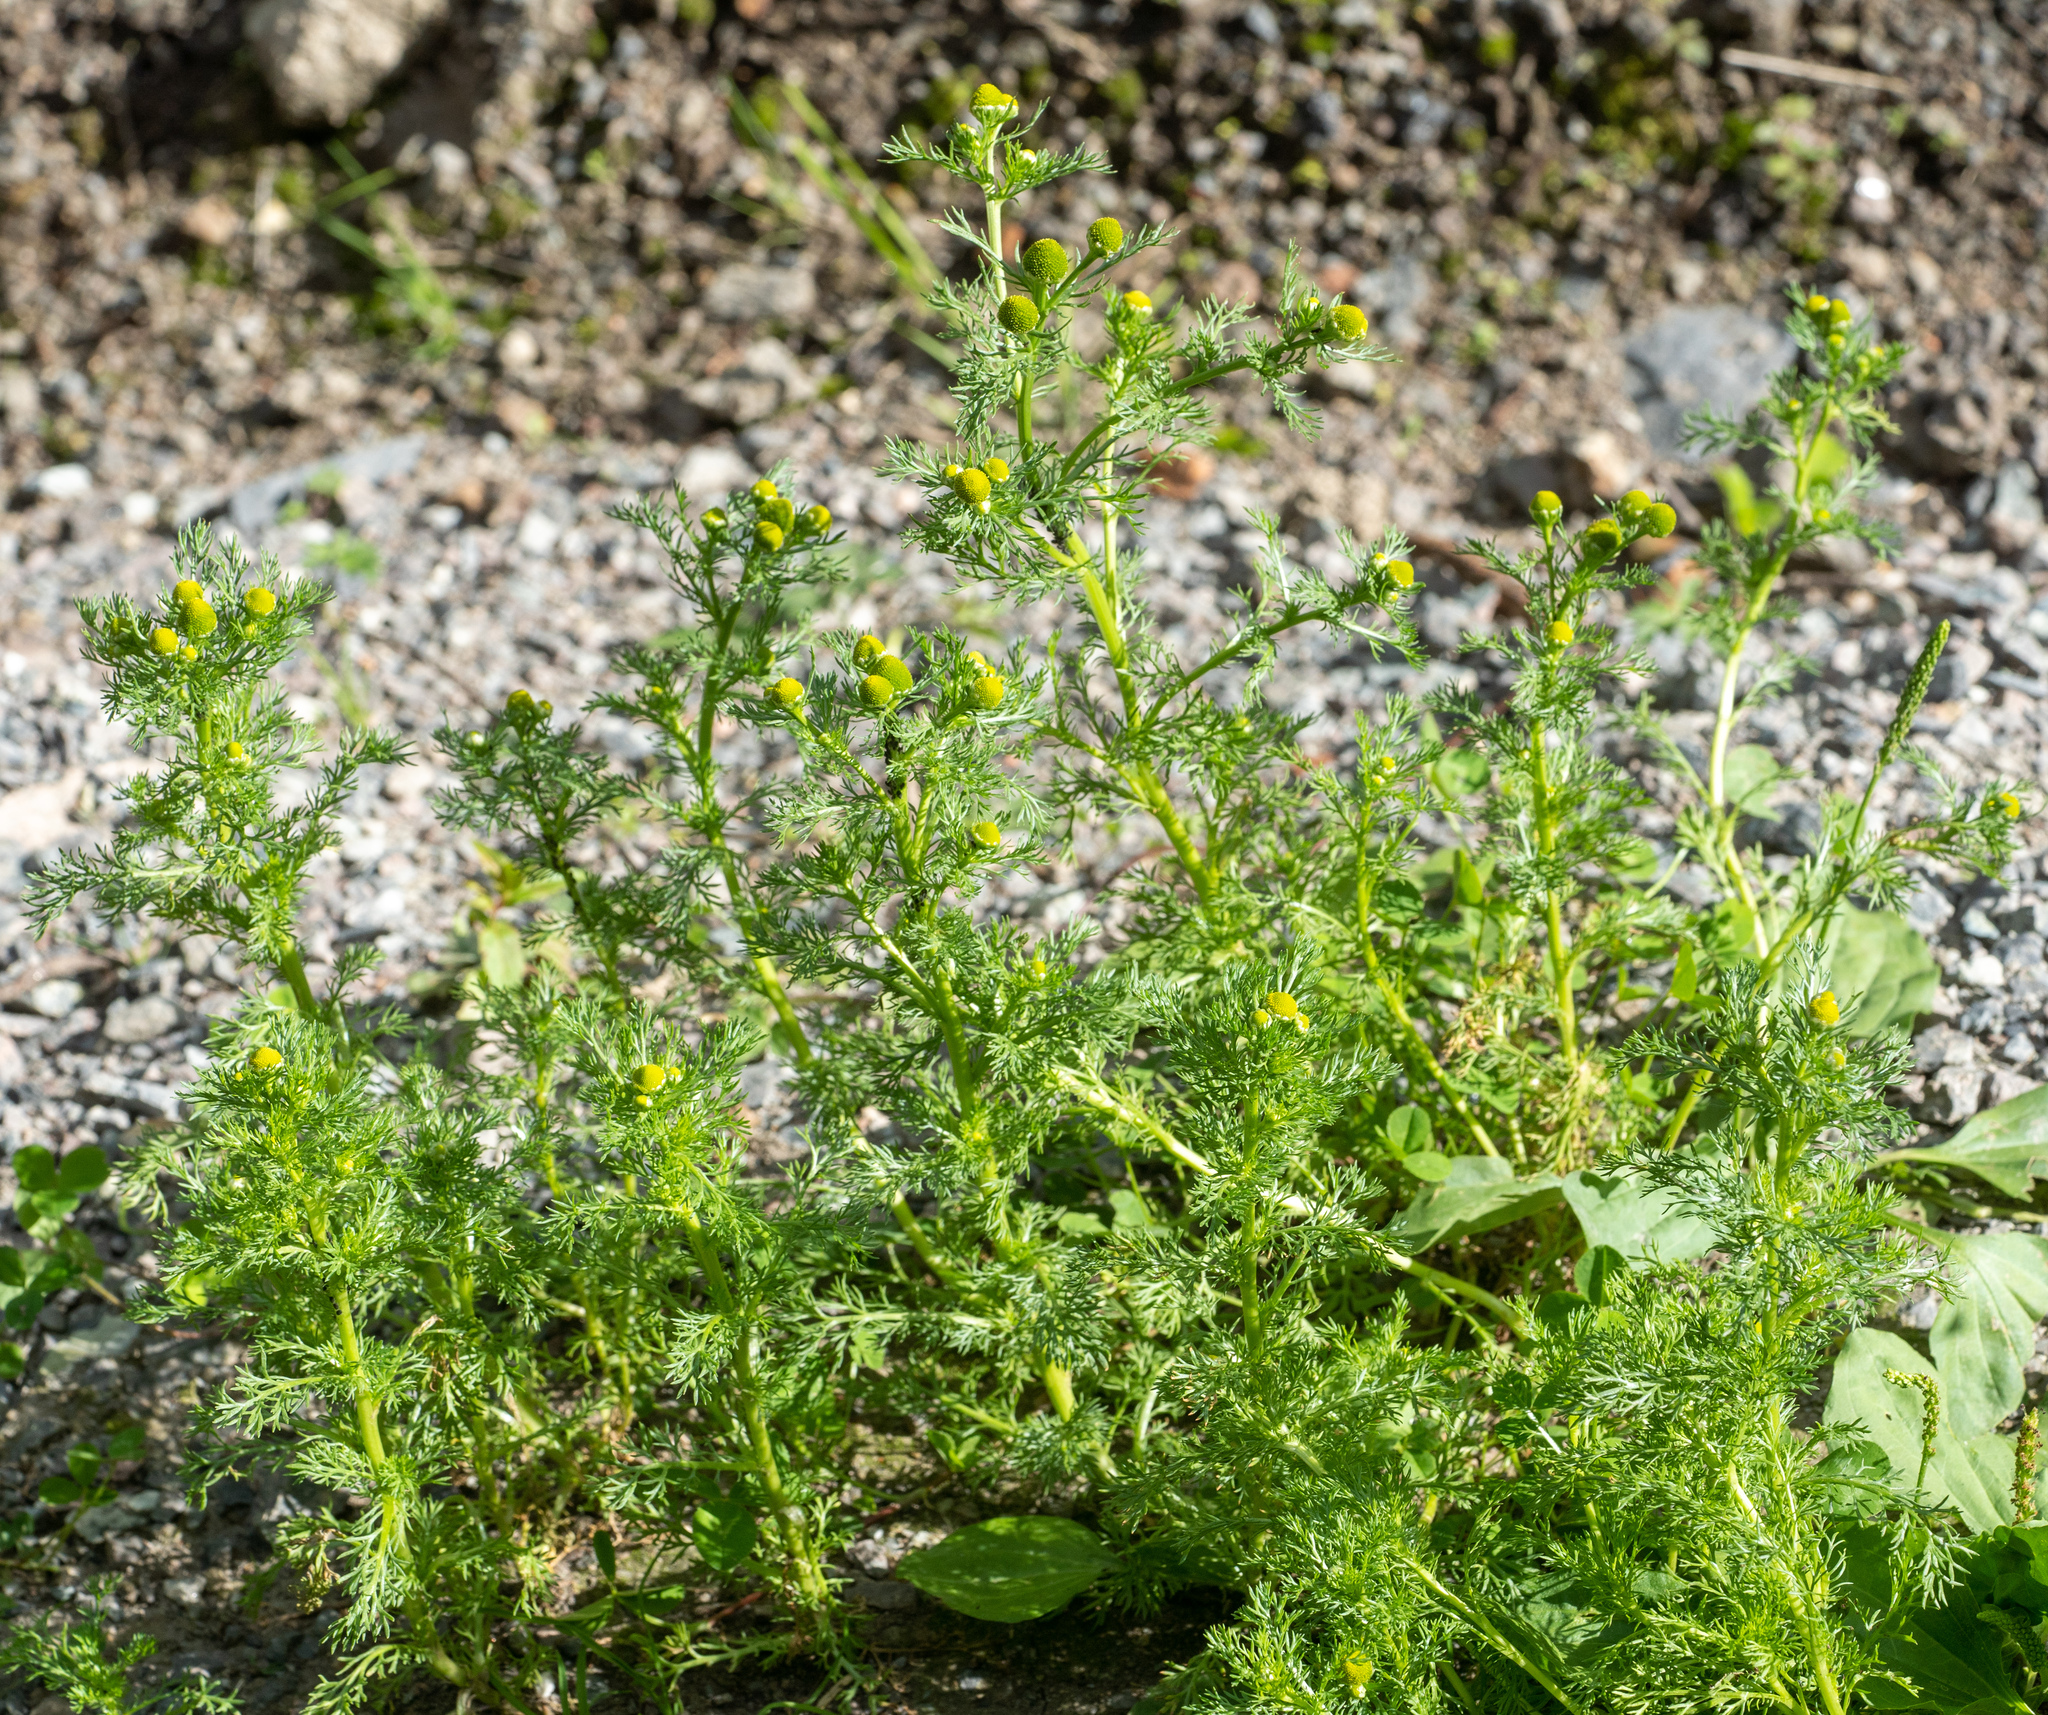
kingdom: Plantae
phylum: Tracheophyta
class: Magnoliopsida
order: Asterales
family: Asteraceae
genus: Matricaria
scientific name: Matricaria discoidea
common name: Disc mayweed
